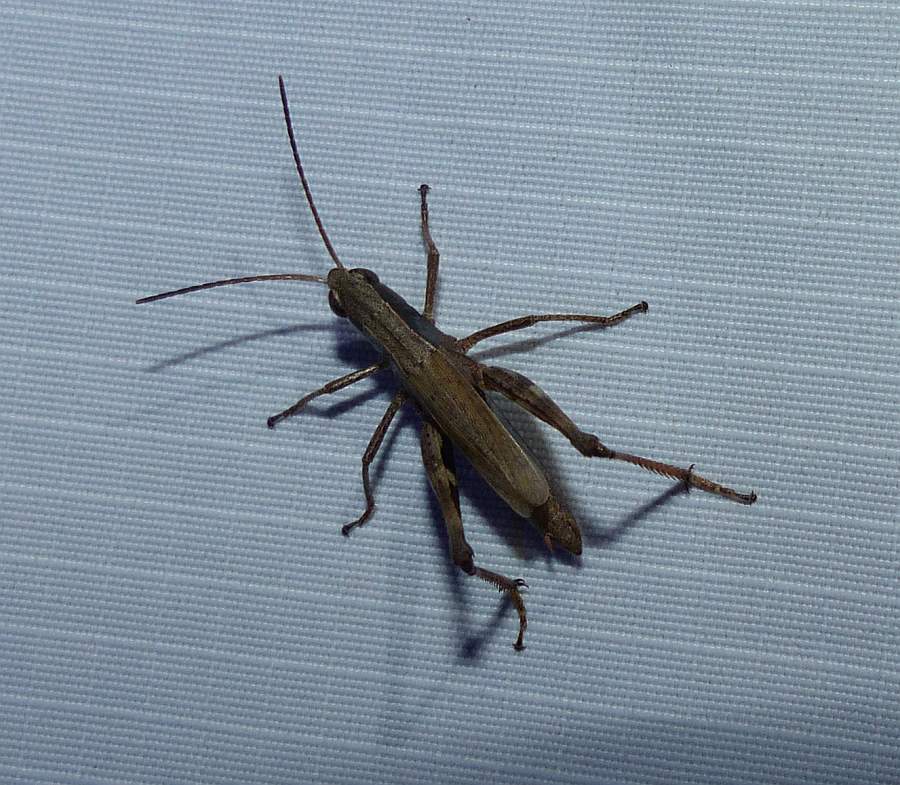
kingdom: Animalia
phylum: Arthropoda
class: Insecta
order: Orthoptera
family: Acrididae
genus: Chloealtis
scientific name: Chloealtis conspersa
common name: Sprinkled broad-winged grasshopper
